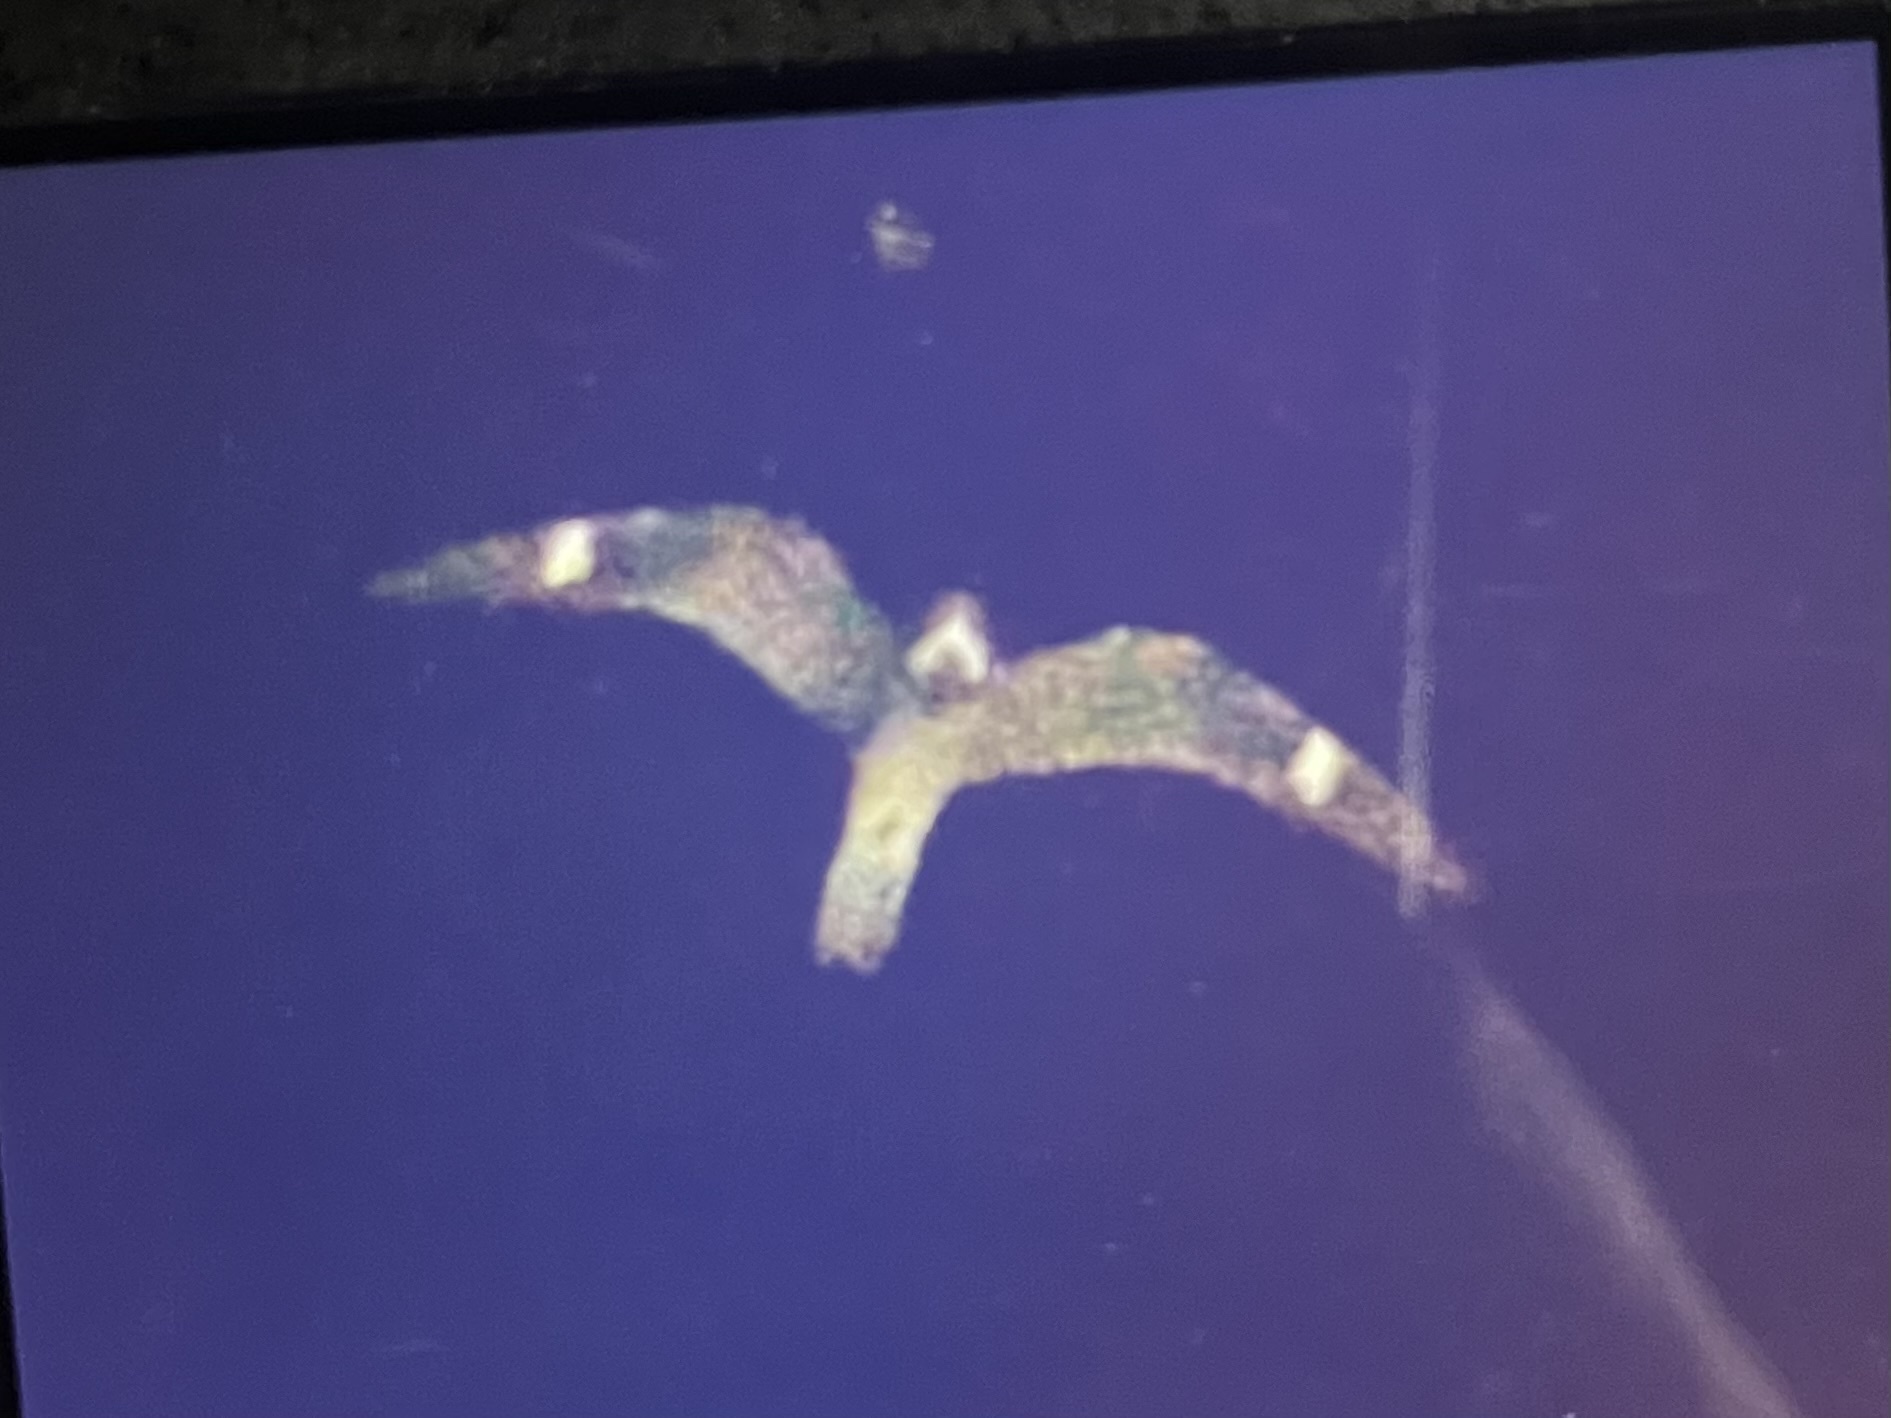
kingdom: Animalia
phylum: Chordata
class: Aves
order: Caprimulgiformes
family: Caprimulgidae
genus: Chordeiles
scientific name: Chordeiles minor
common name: Common nighthawk
